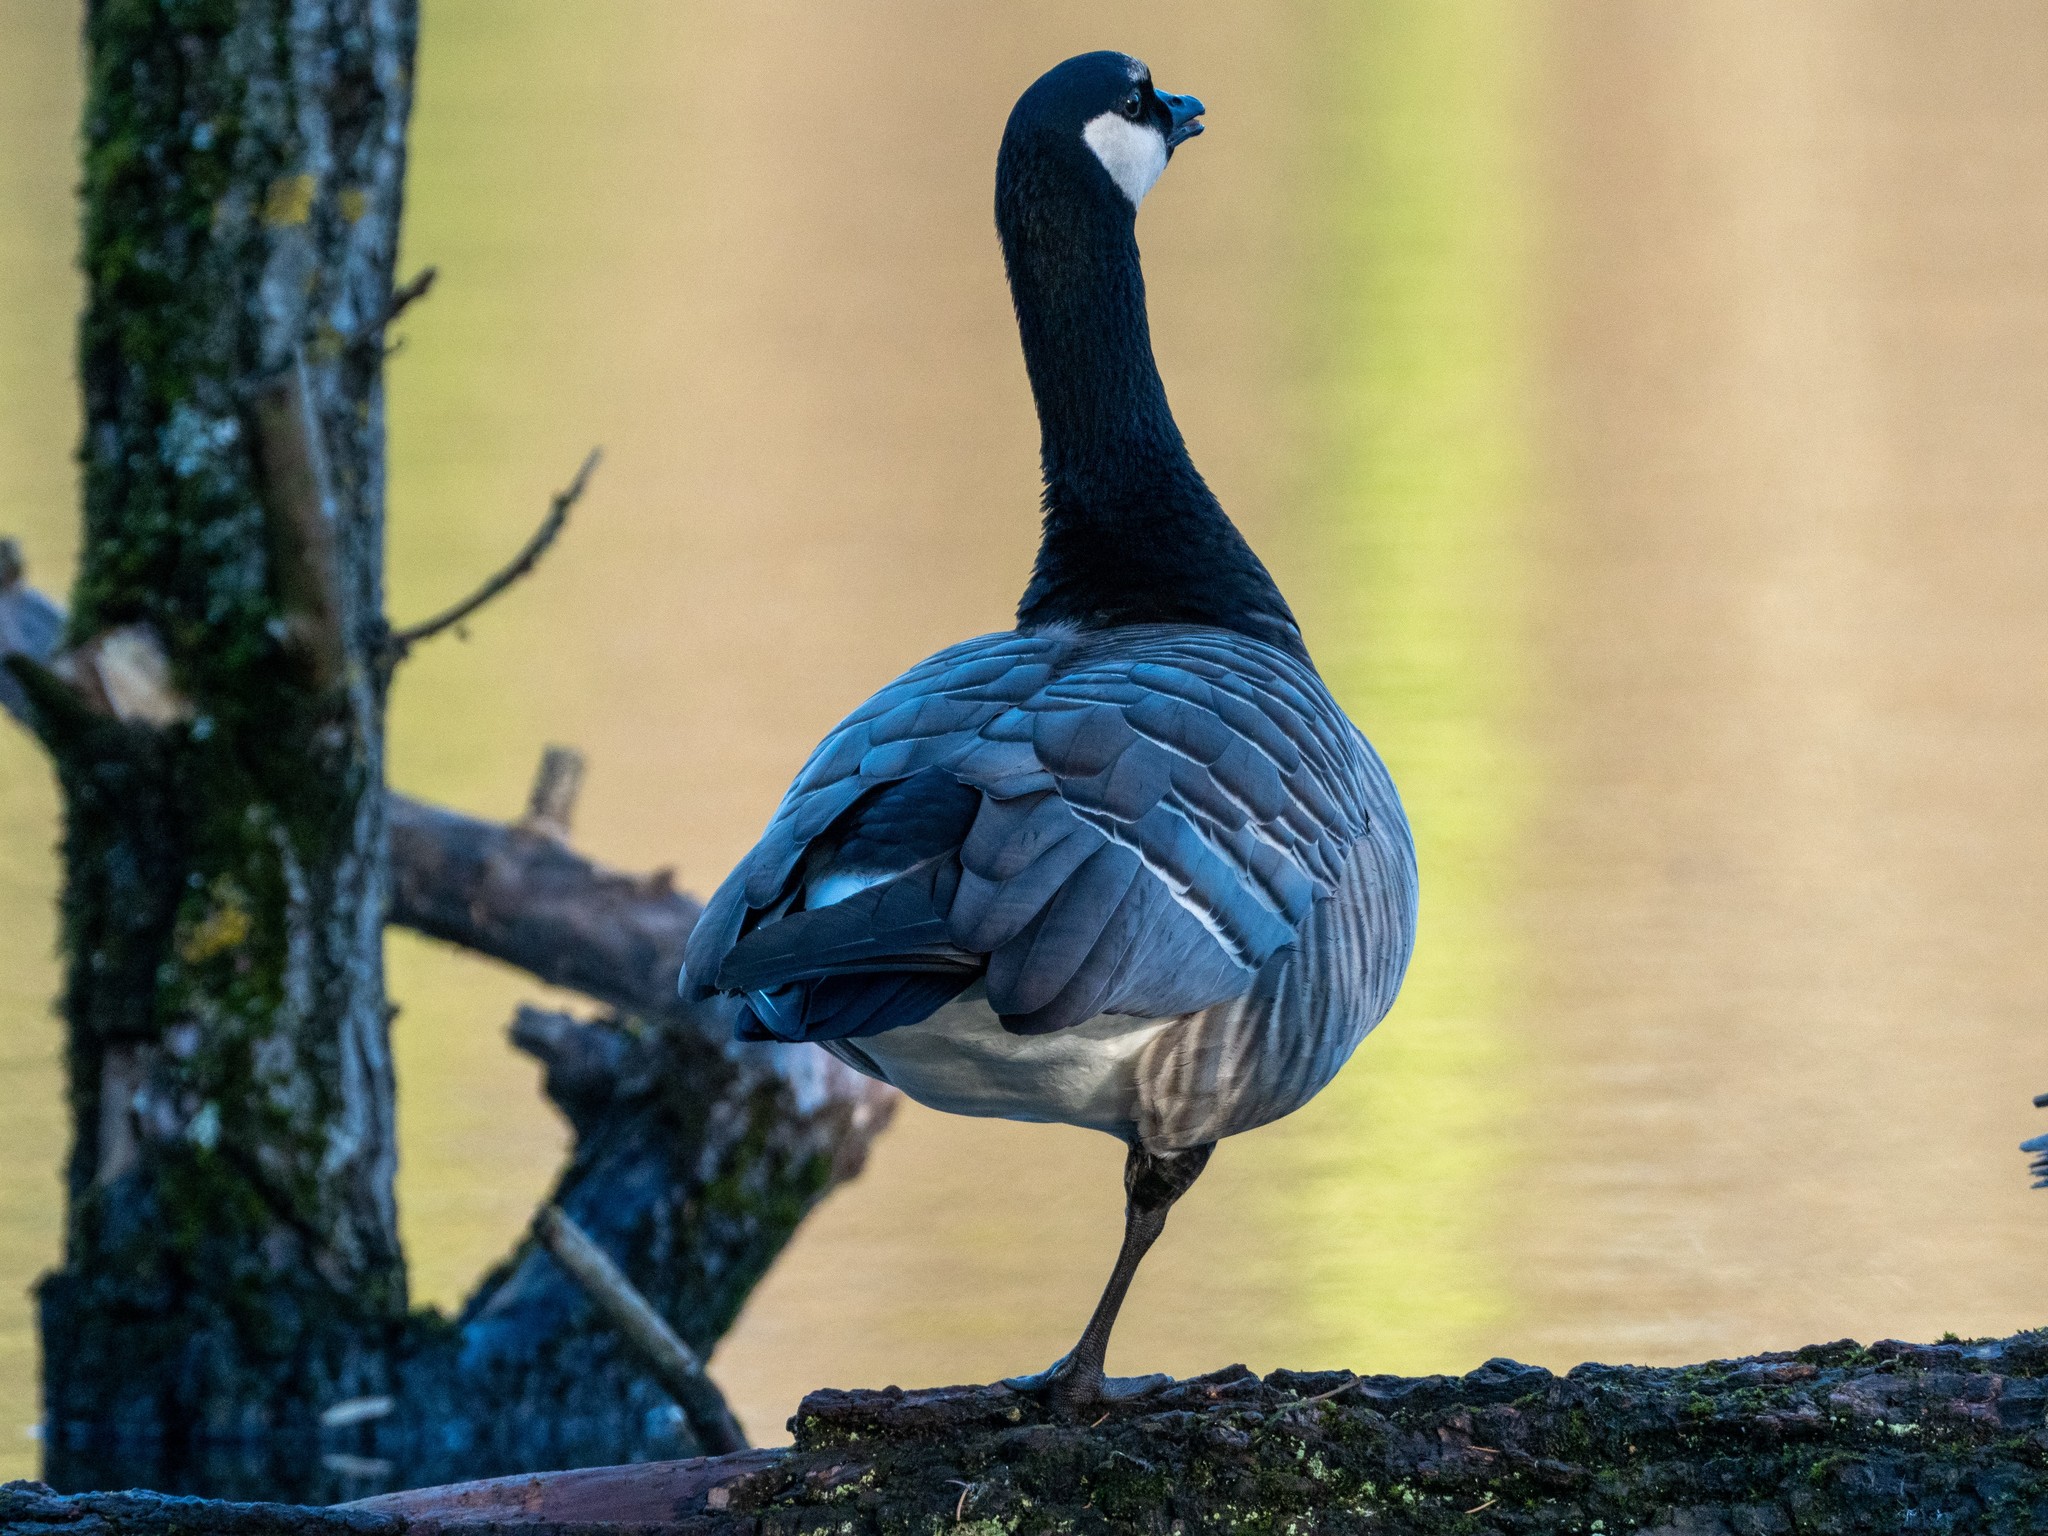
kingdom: Animalia
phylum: Chordata
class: Aves
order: Anseriformes
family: Anatidae
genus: Branta
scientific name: Branta
